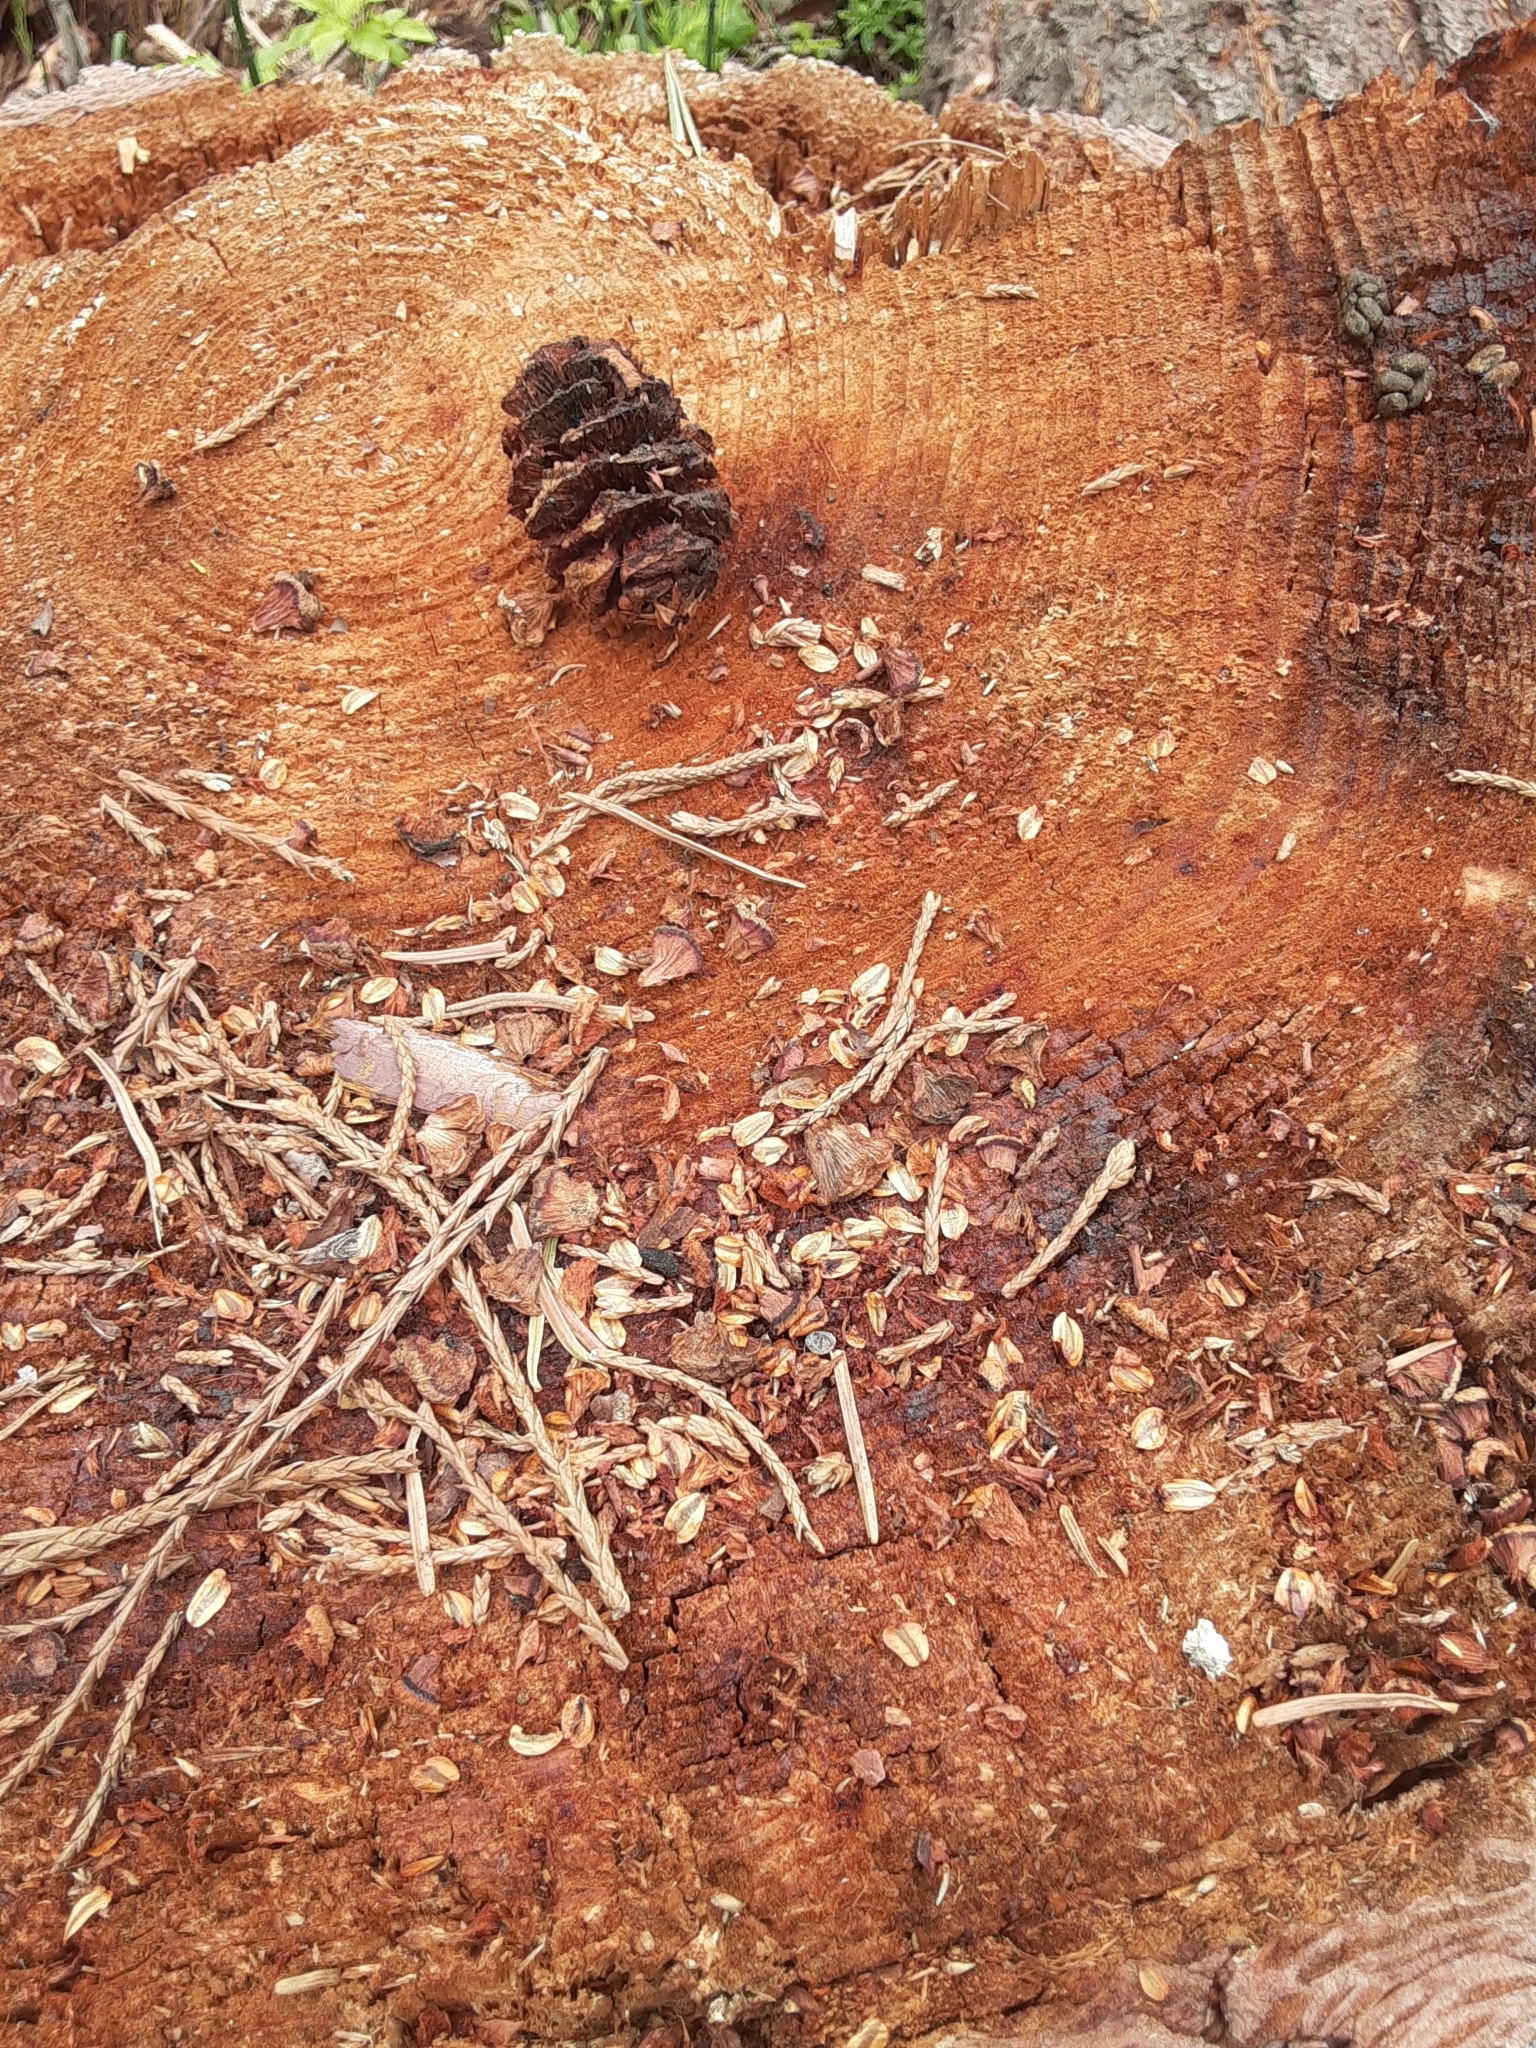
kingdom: Plantae
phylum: Tracheophyta
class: Pinopsida
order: Pinales
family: Cupressaceae
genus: Sequoiadendron
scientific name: Sequoiadendron giganteum
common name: Wellingtonia
